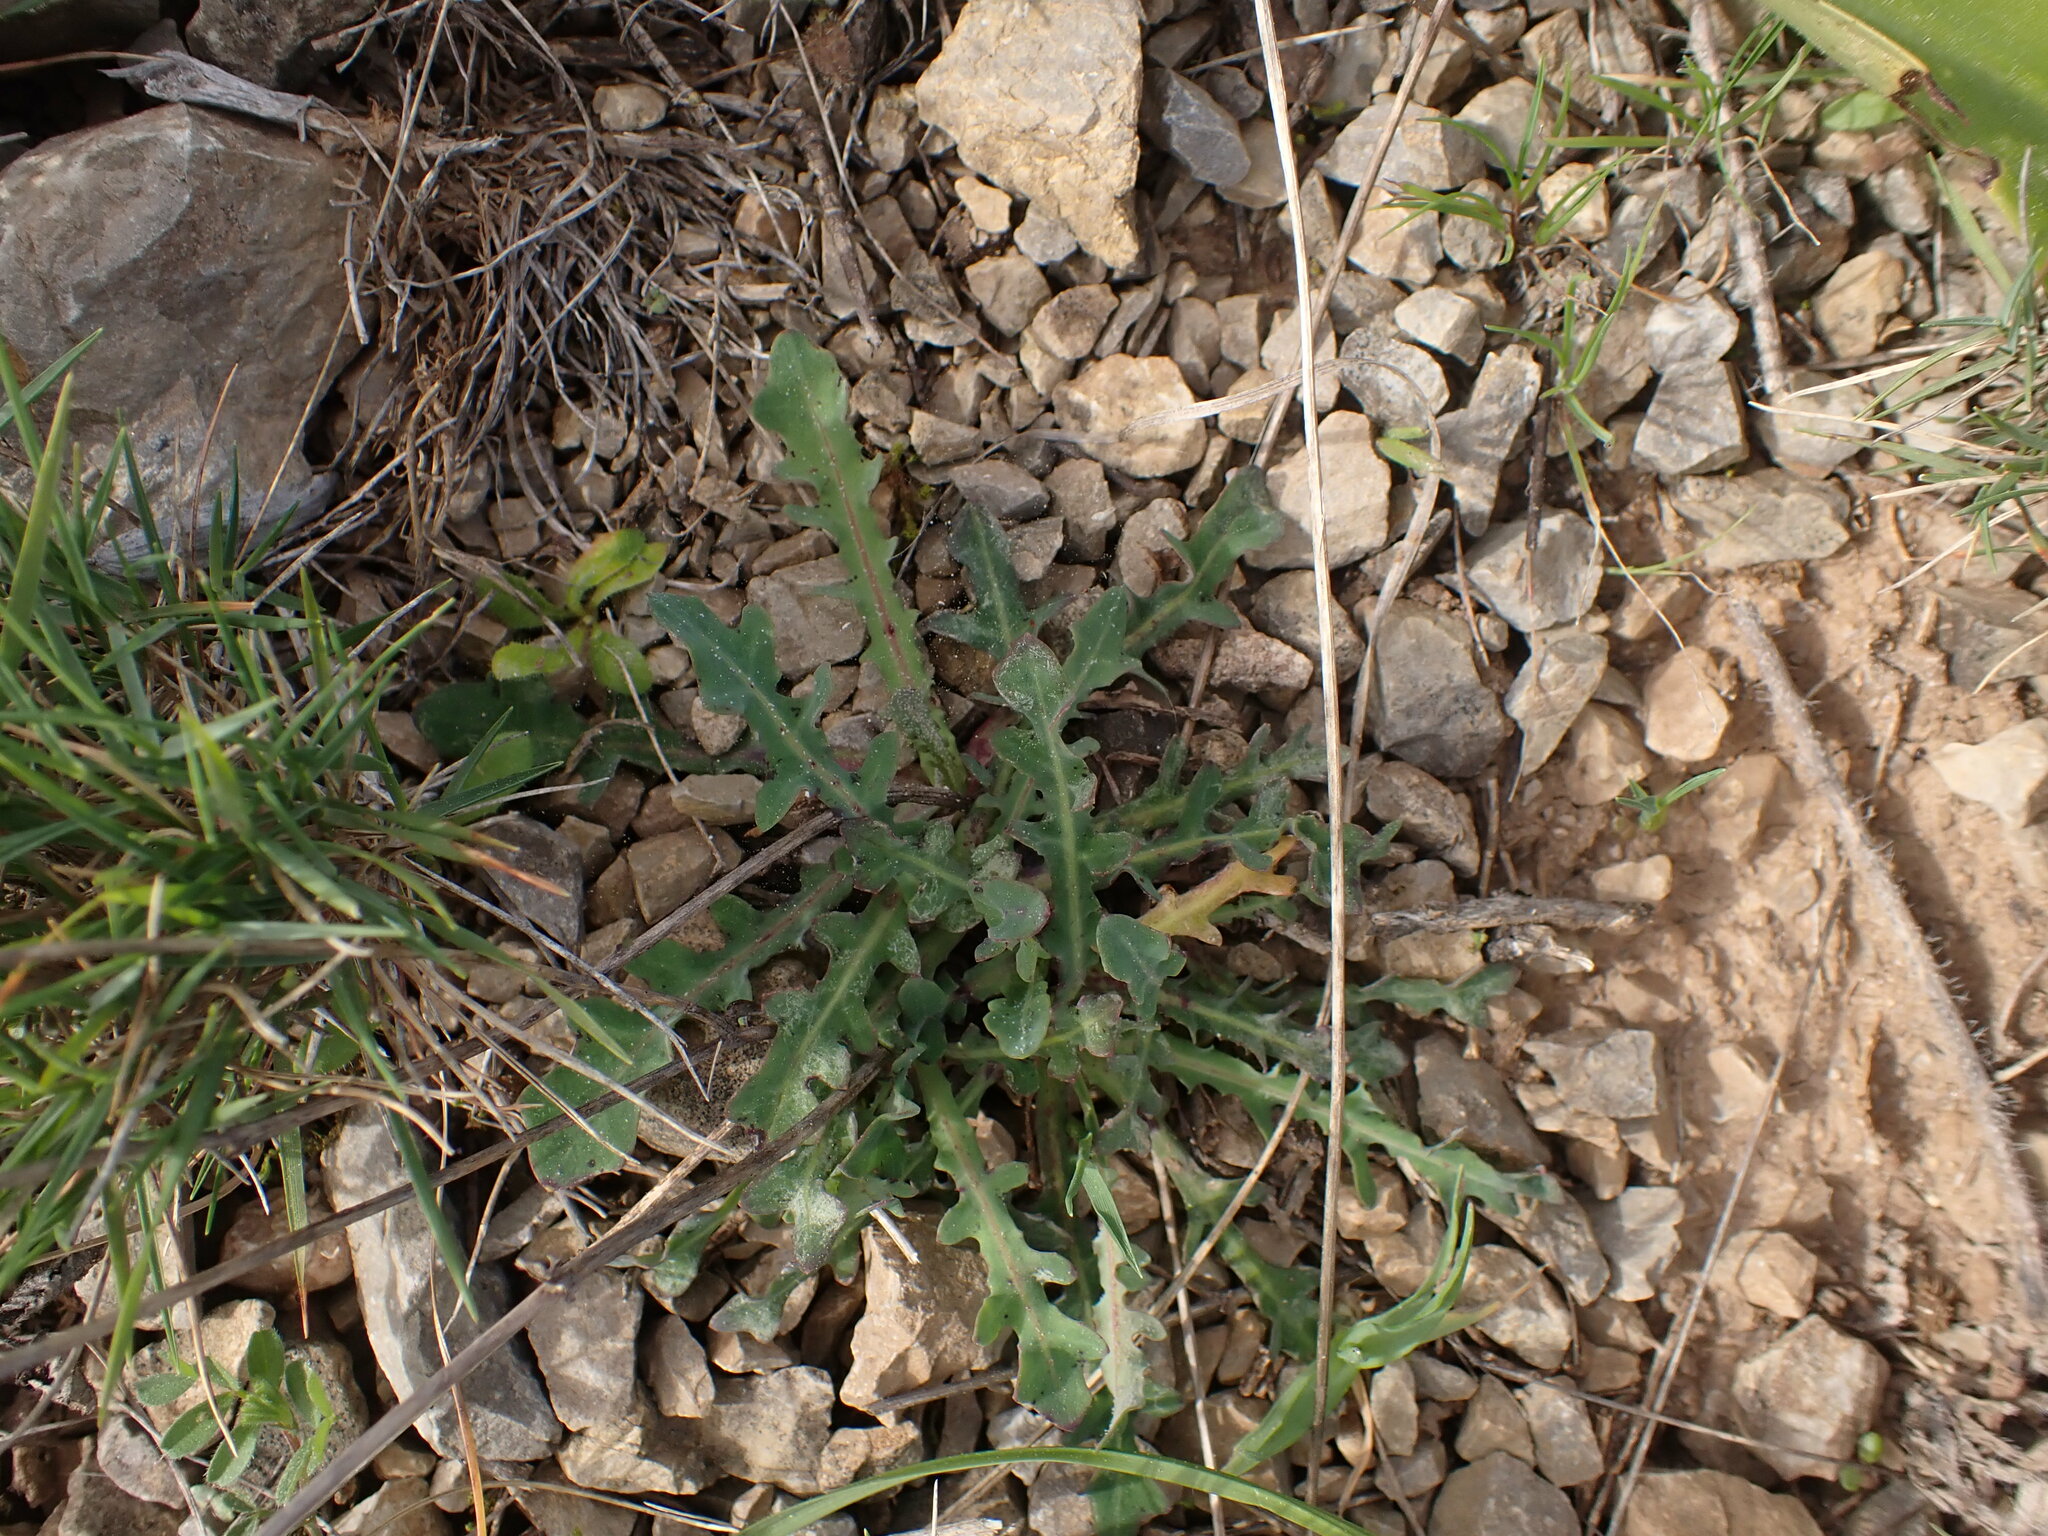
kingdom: Plantae
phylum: Tracheophyta
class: Magnoliopsida
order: Asterales
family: Asteraceae
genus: Reichardia
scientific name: Reichardia picroides
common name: Common brighteyes
